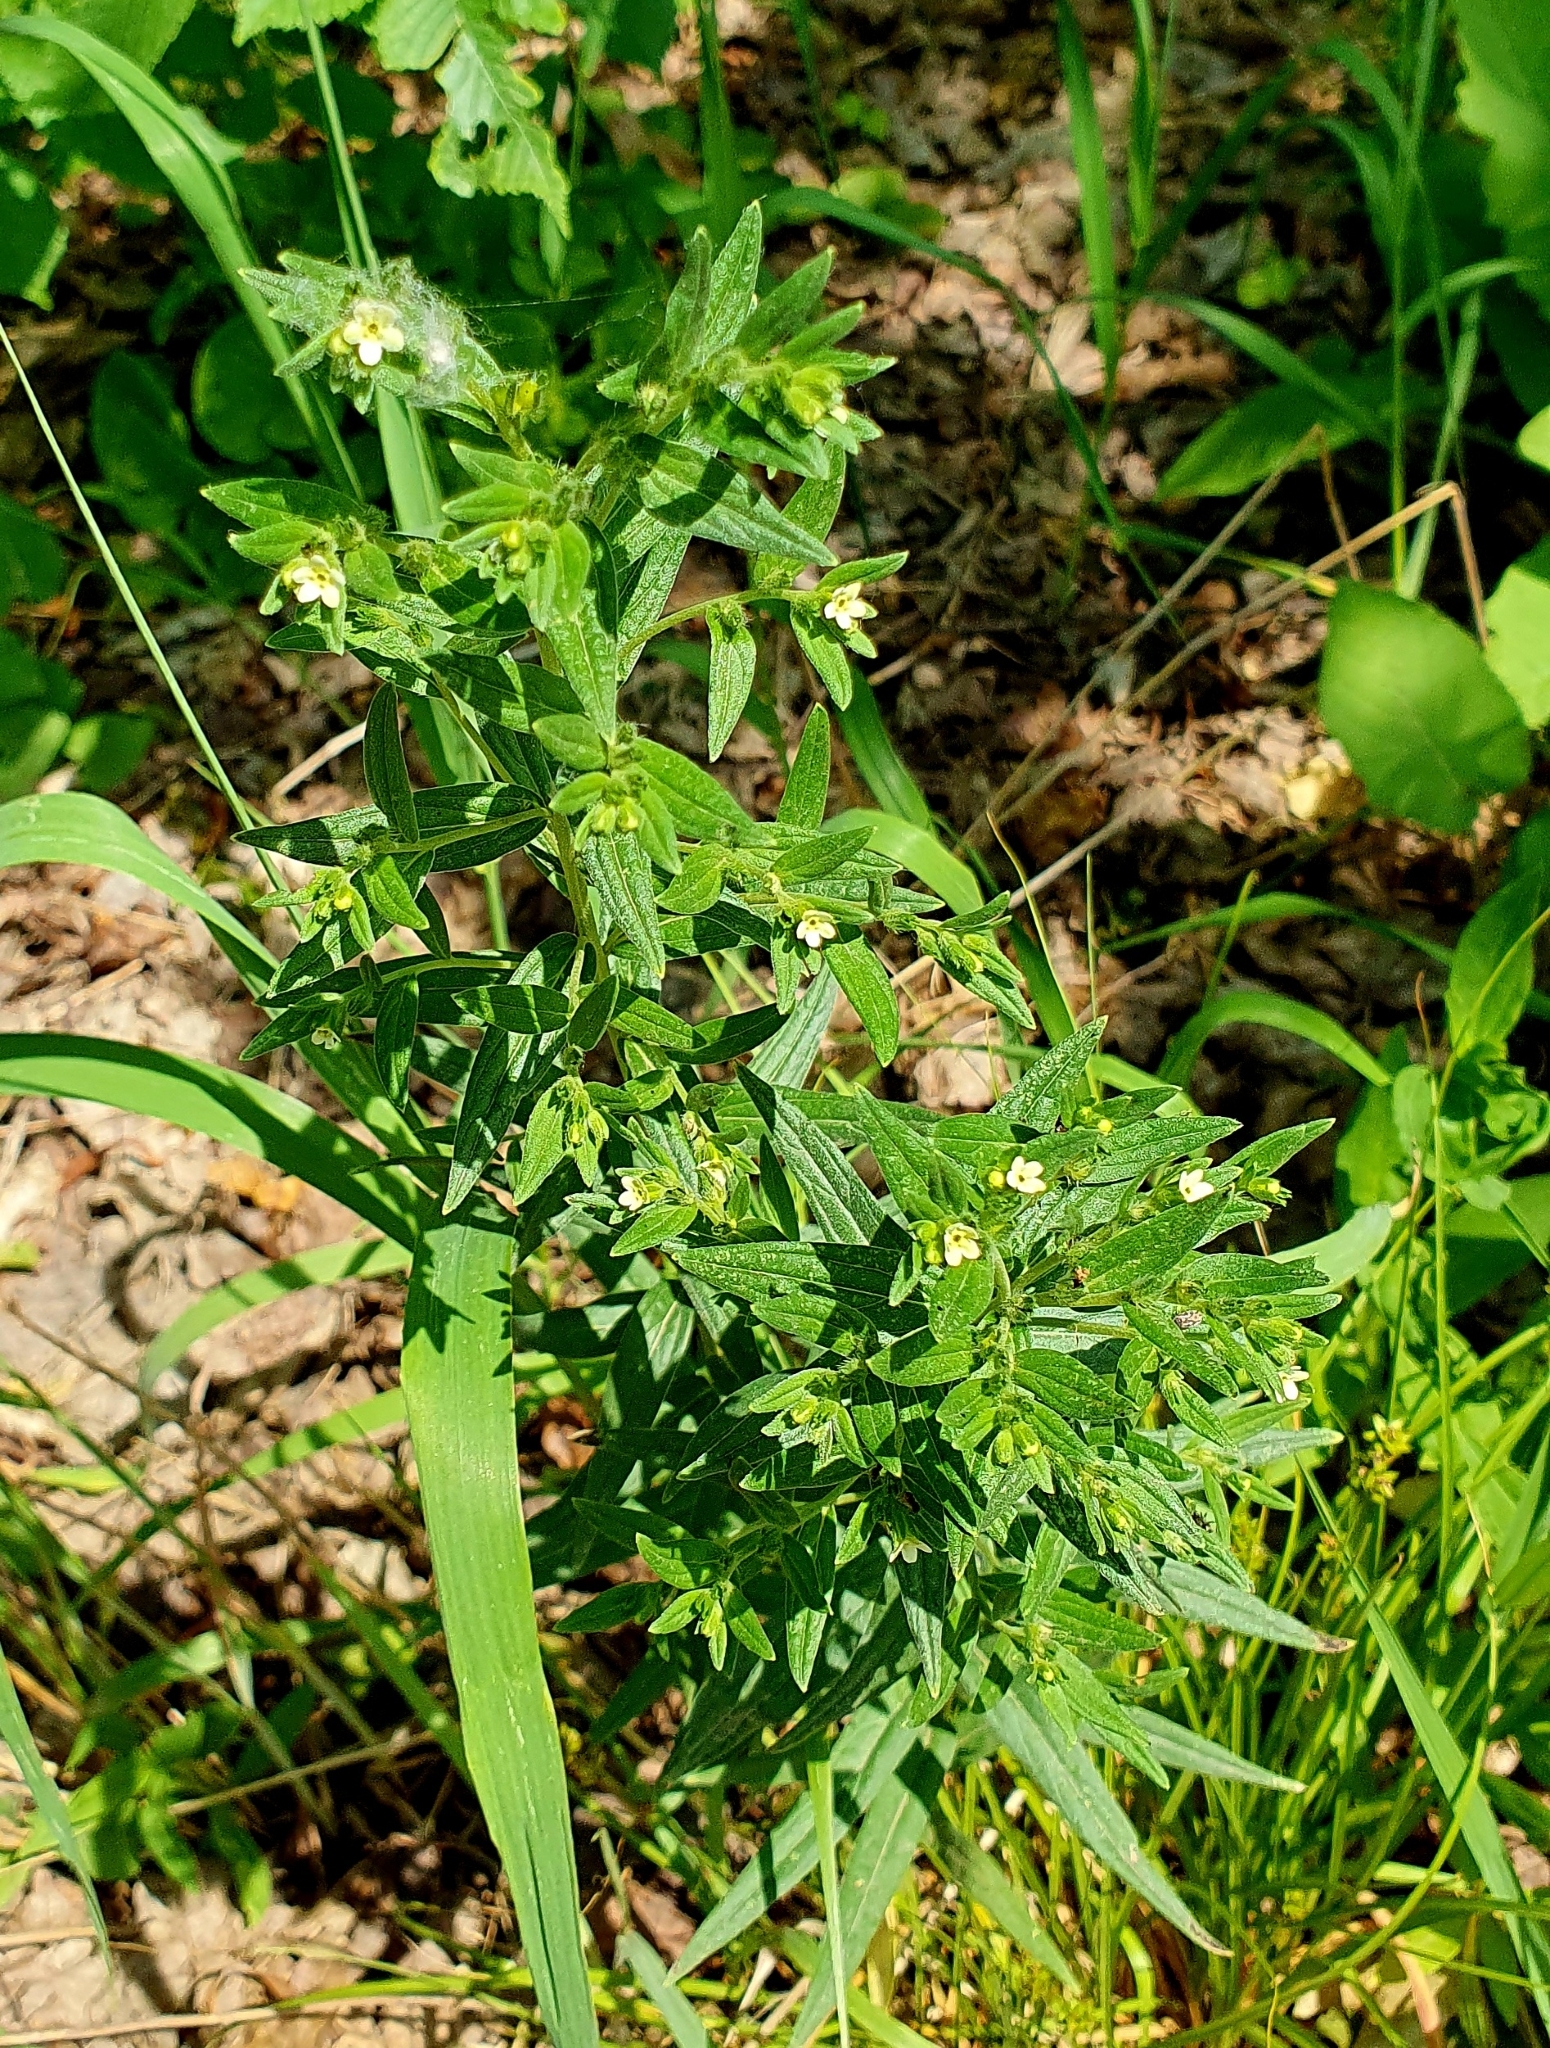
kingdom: Plantae
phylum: Tracheophyta
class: Magnoliopsida
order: Boraginales
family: Boraginaceae
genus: Lithospermum
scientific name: Lithospermum officinale
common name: Common gromwell
